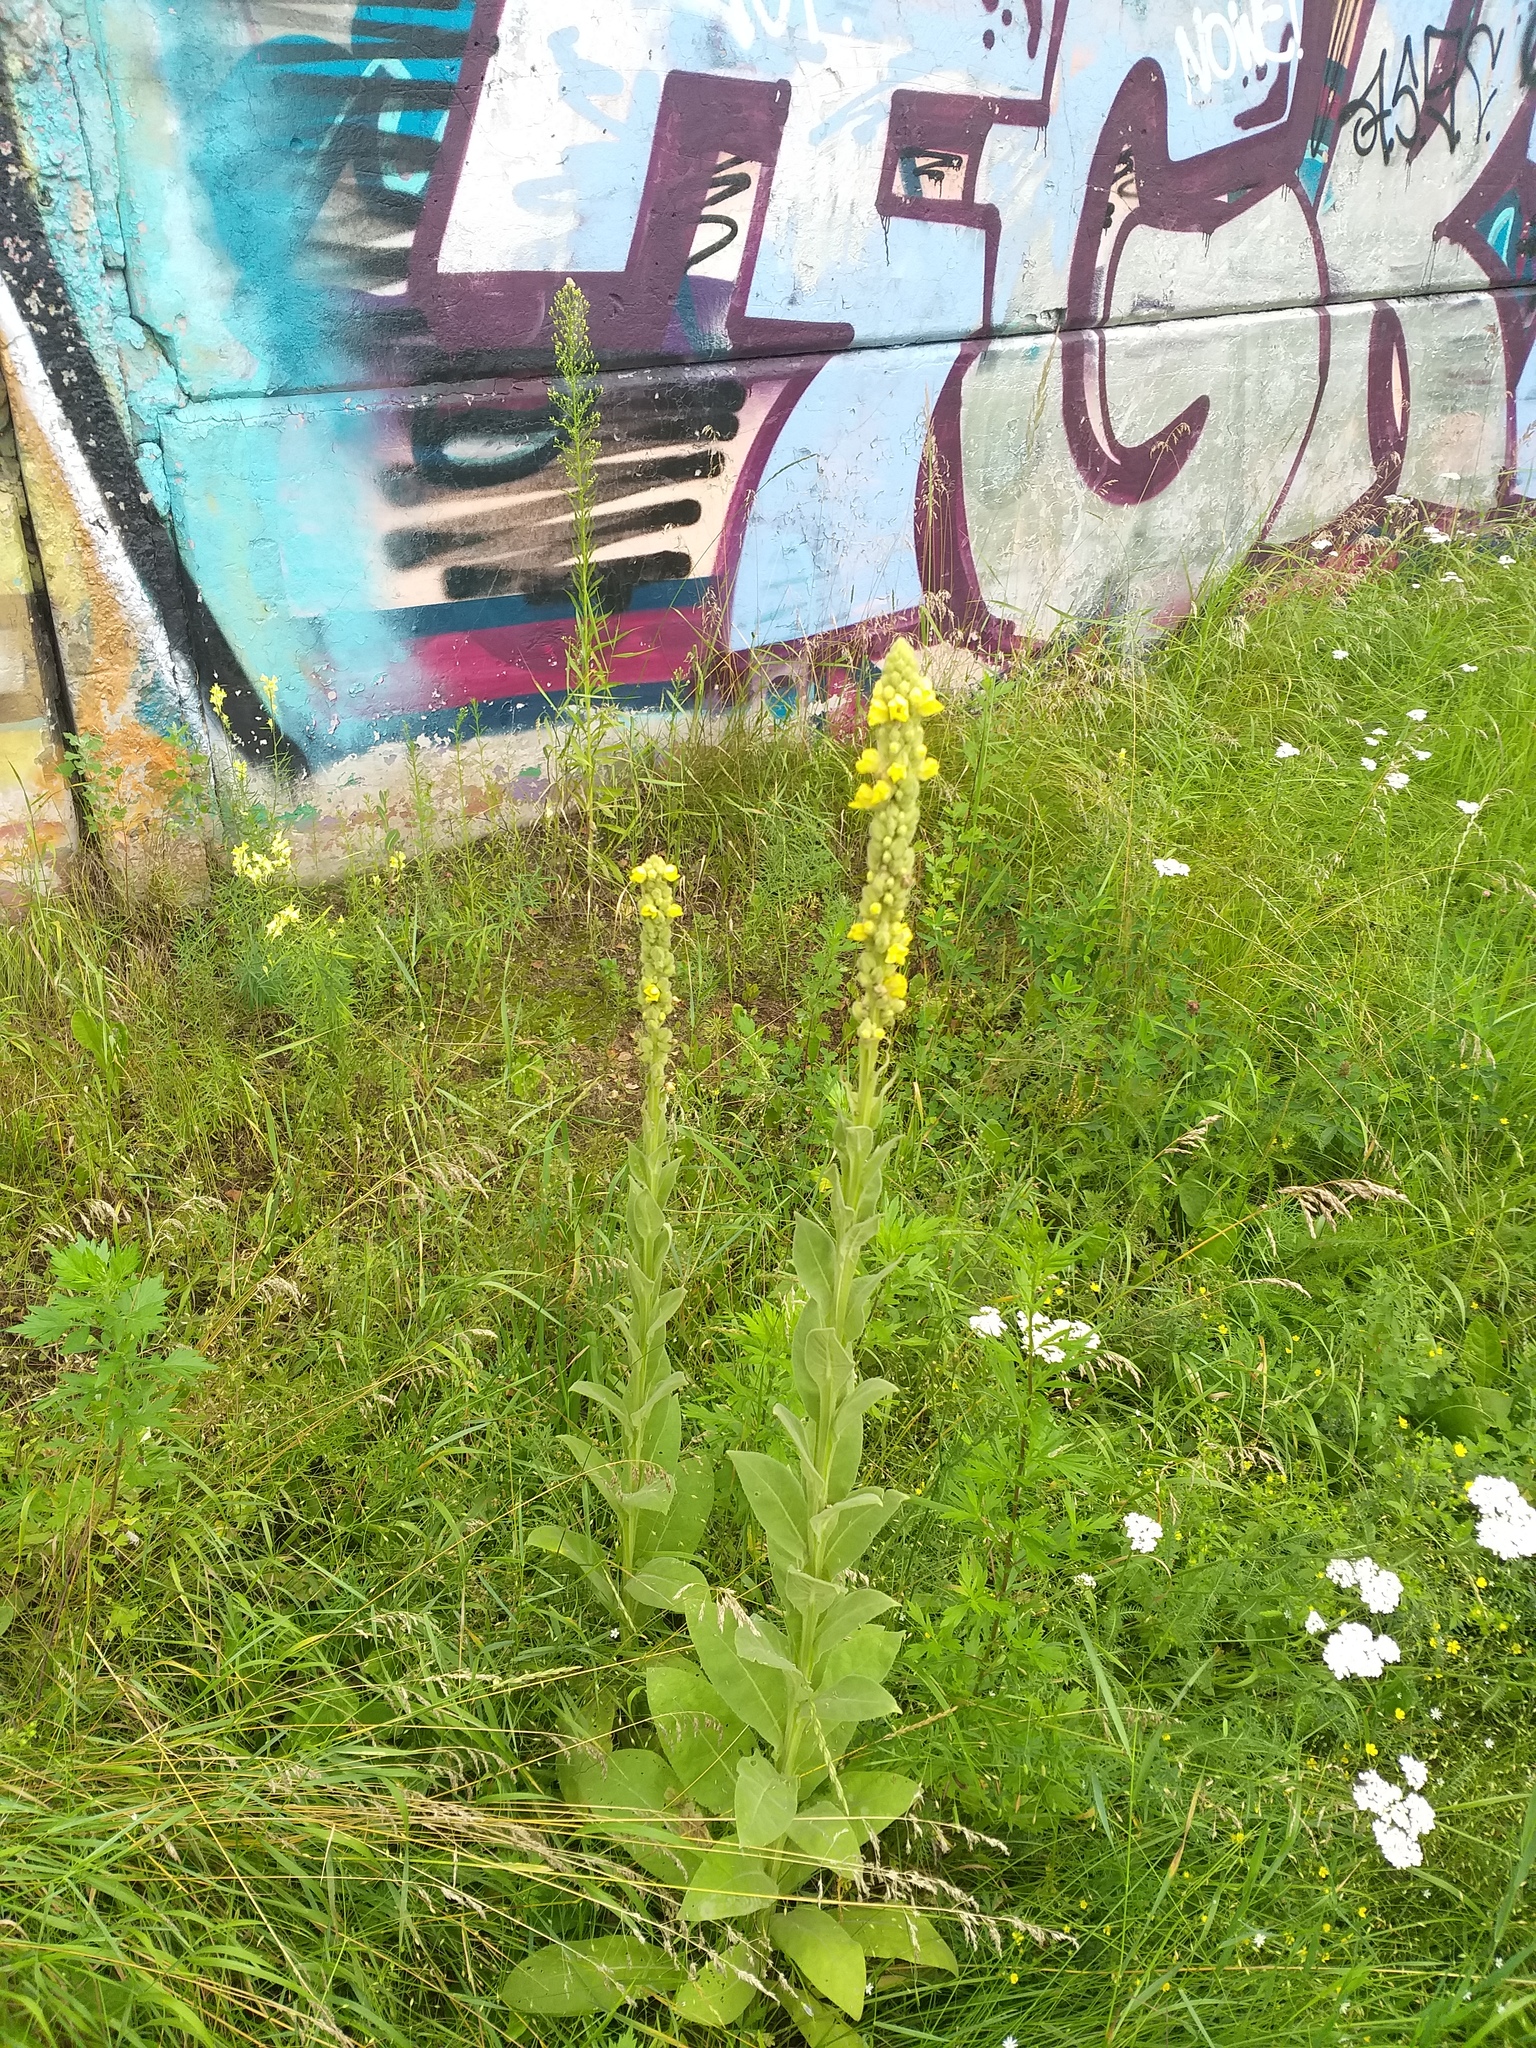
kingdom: Plantae
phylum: Tracheophyta
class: Magnoliopsida
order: Lamiales
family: Scrophulariaceae
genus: Verbascum
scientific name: Verbascum thapsus
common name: Common mullein
